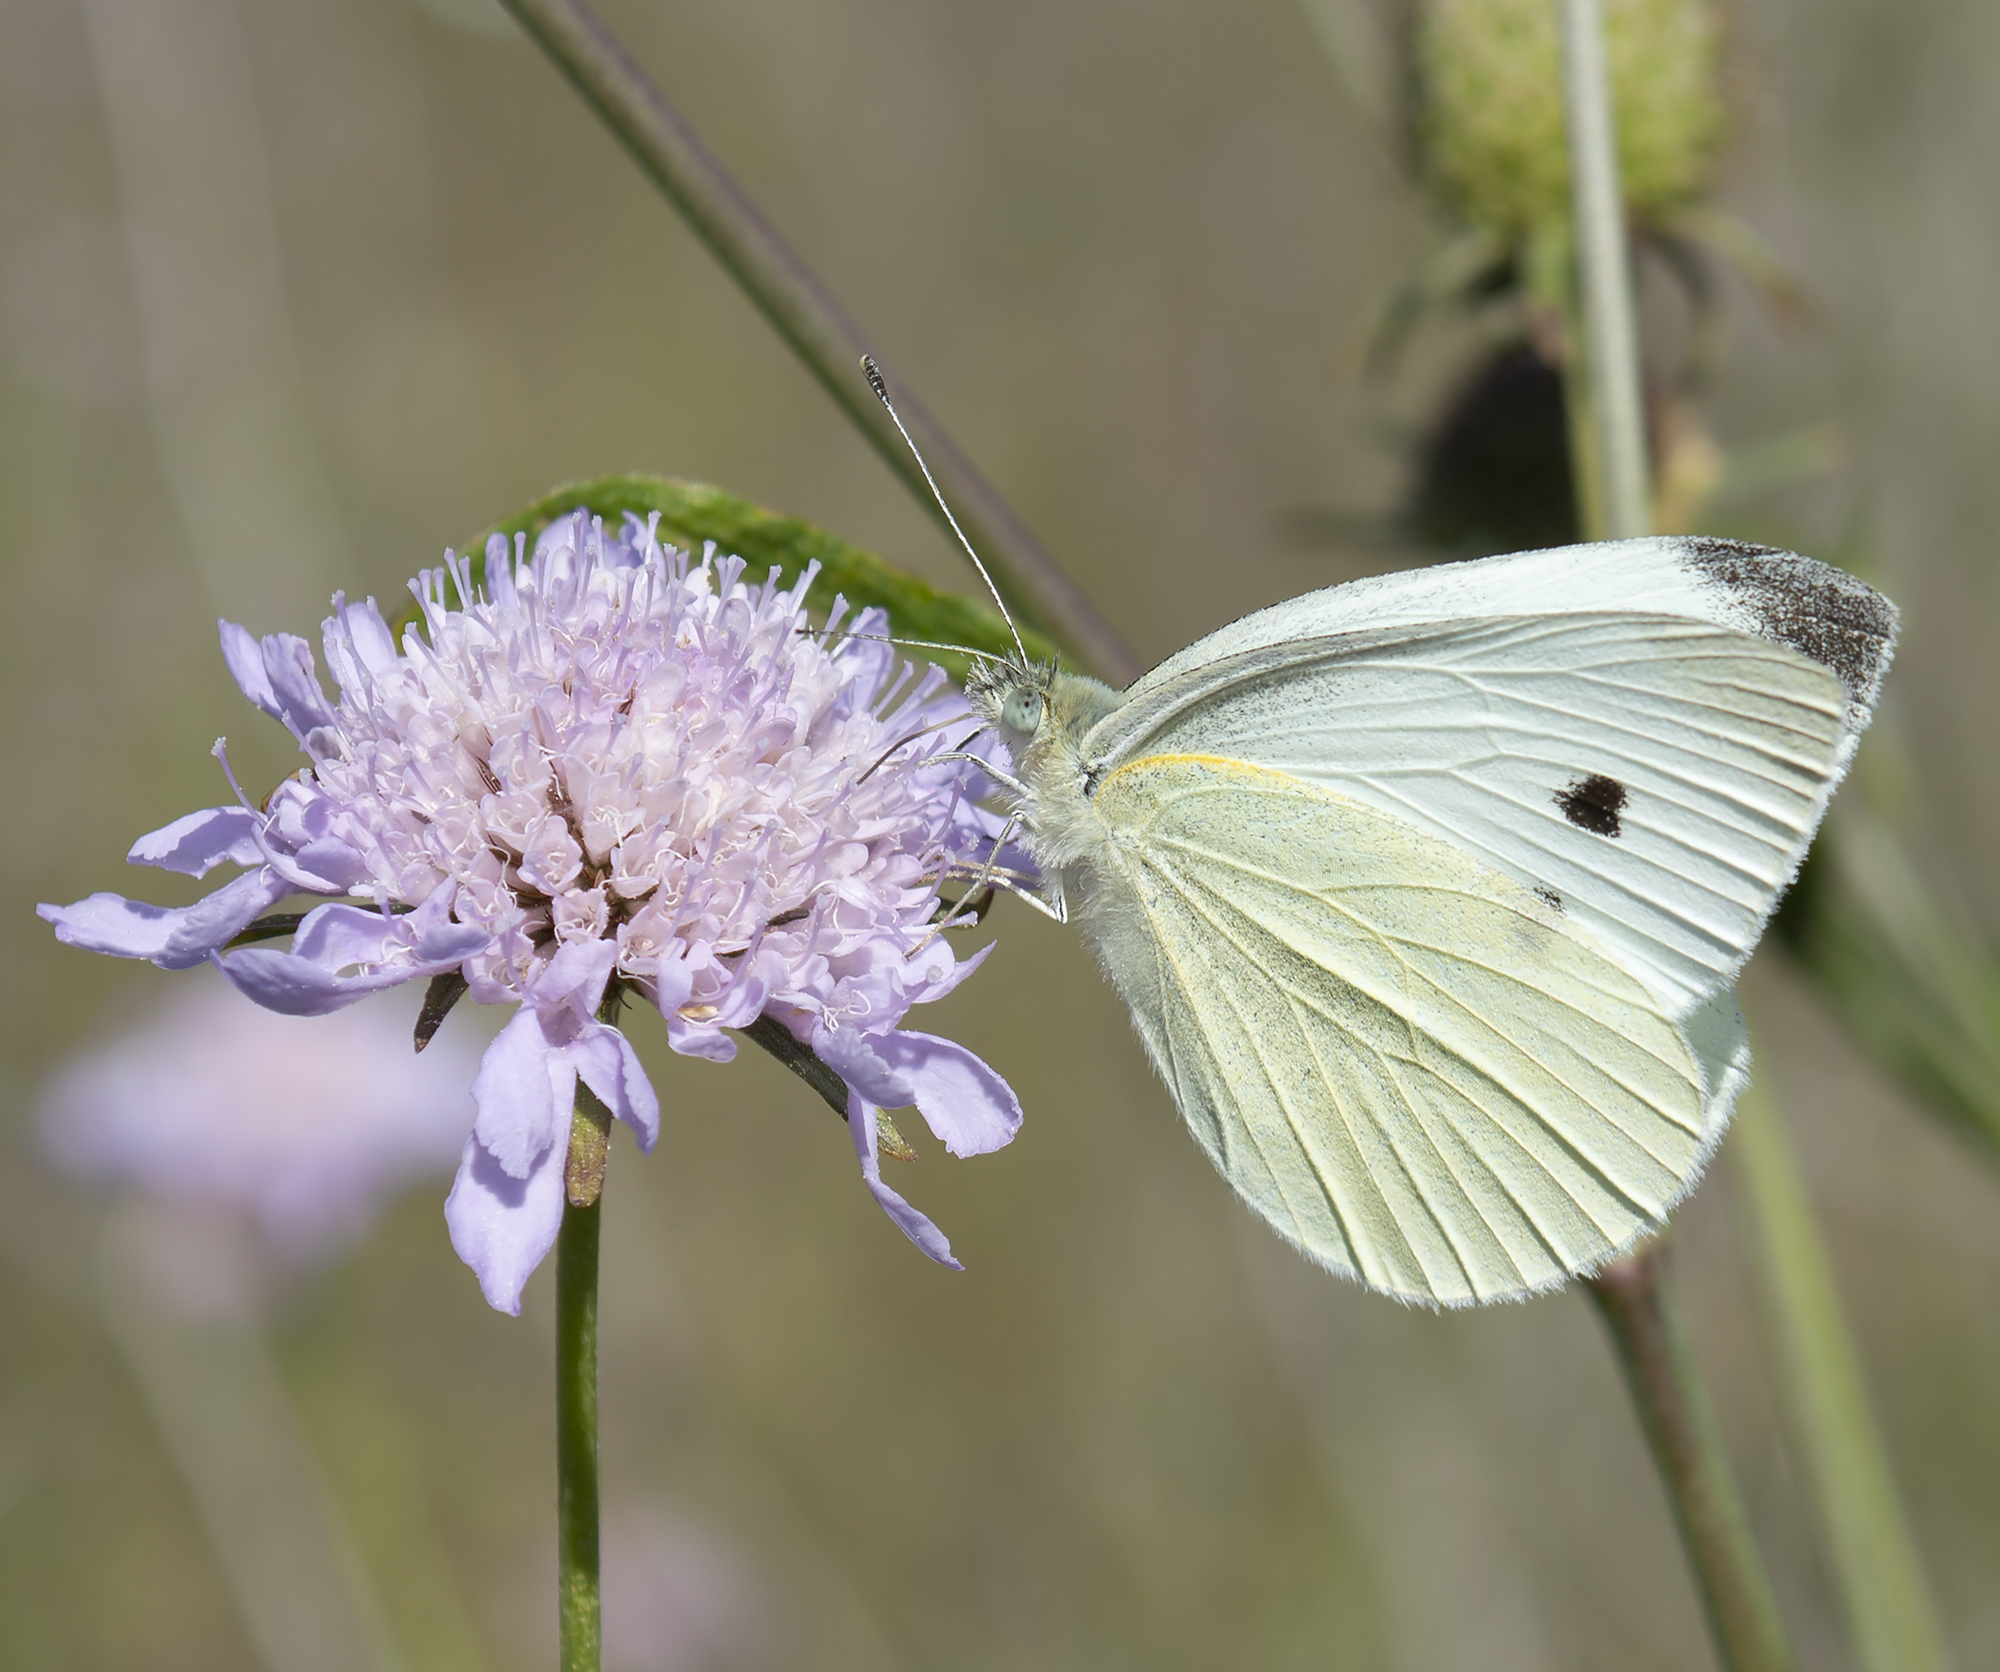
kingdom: Animalia
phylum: Arthropoda
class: Insecta
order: Lepidoptera
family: Pieridae
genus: Pieris
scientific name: Pieris rapae
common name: Small white
